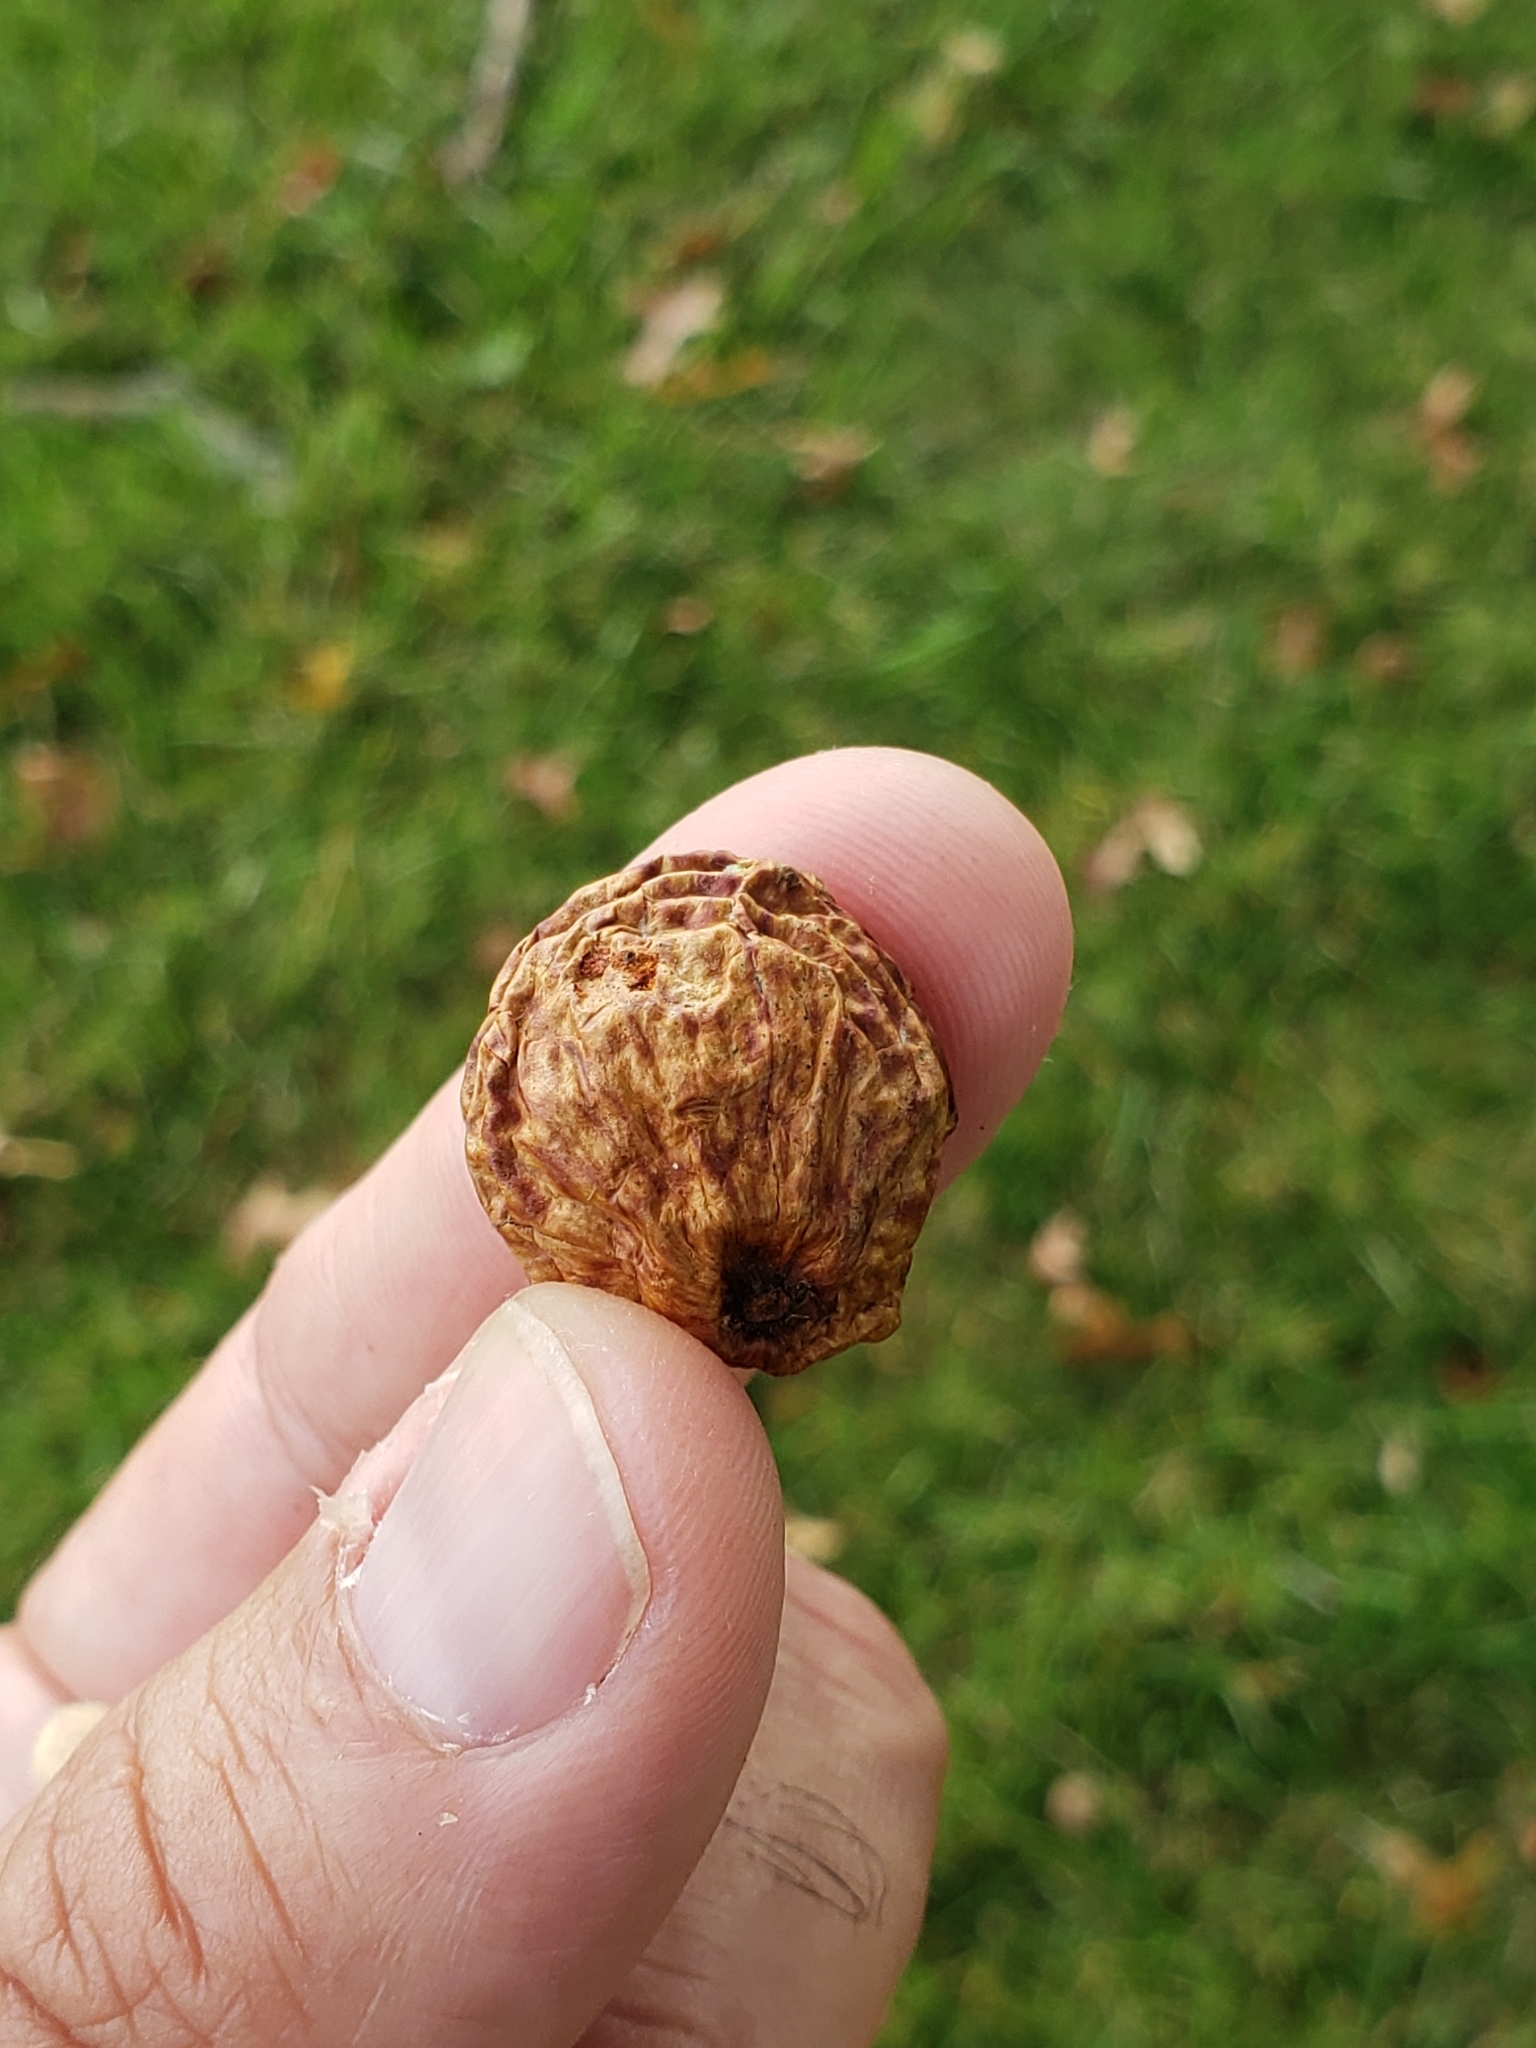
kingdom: Animalia
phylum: Arthropoda
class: Insecta
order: Hymenoptera
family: Cynipidae
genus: Amphibolips
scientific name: Amphibolips
